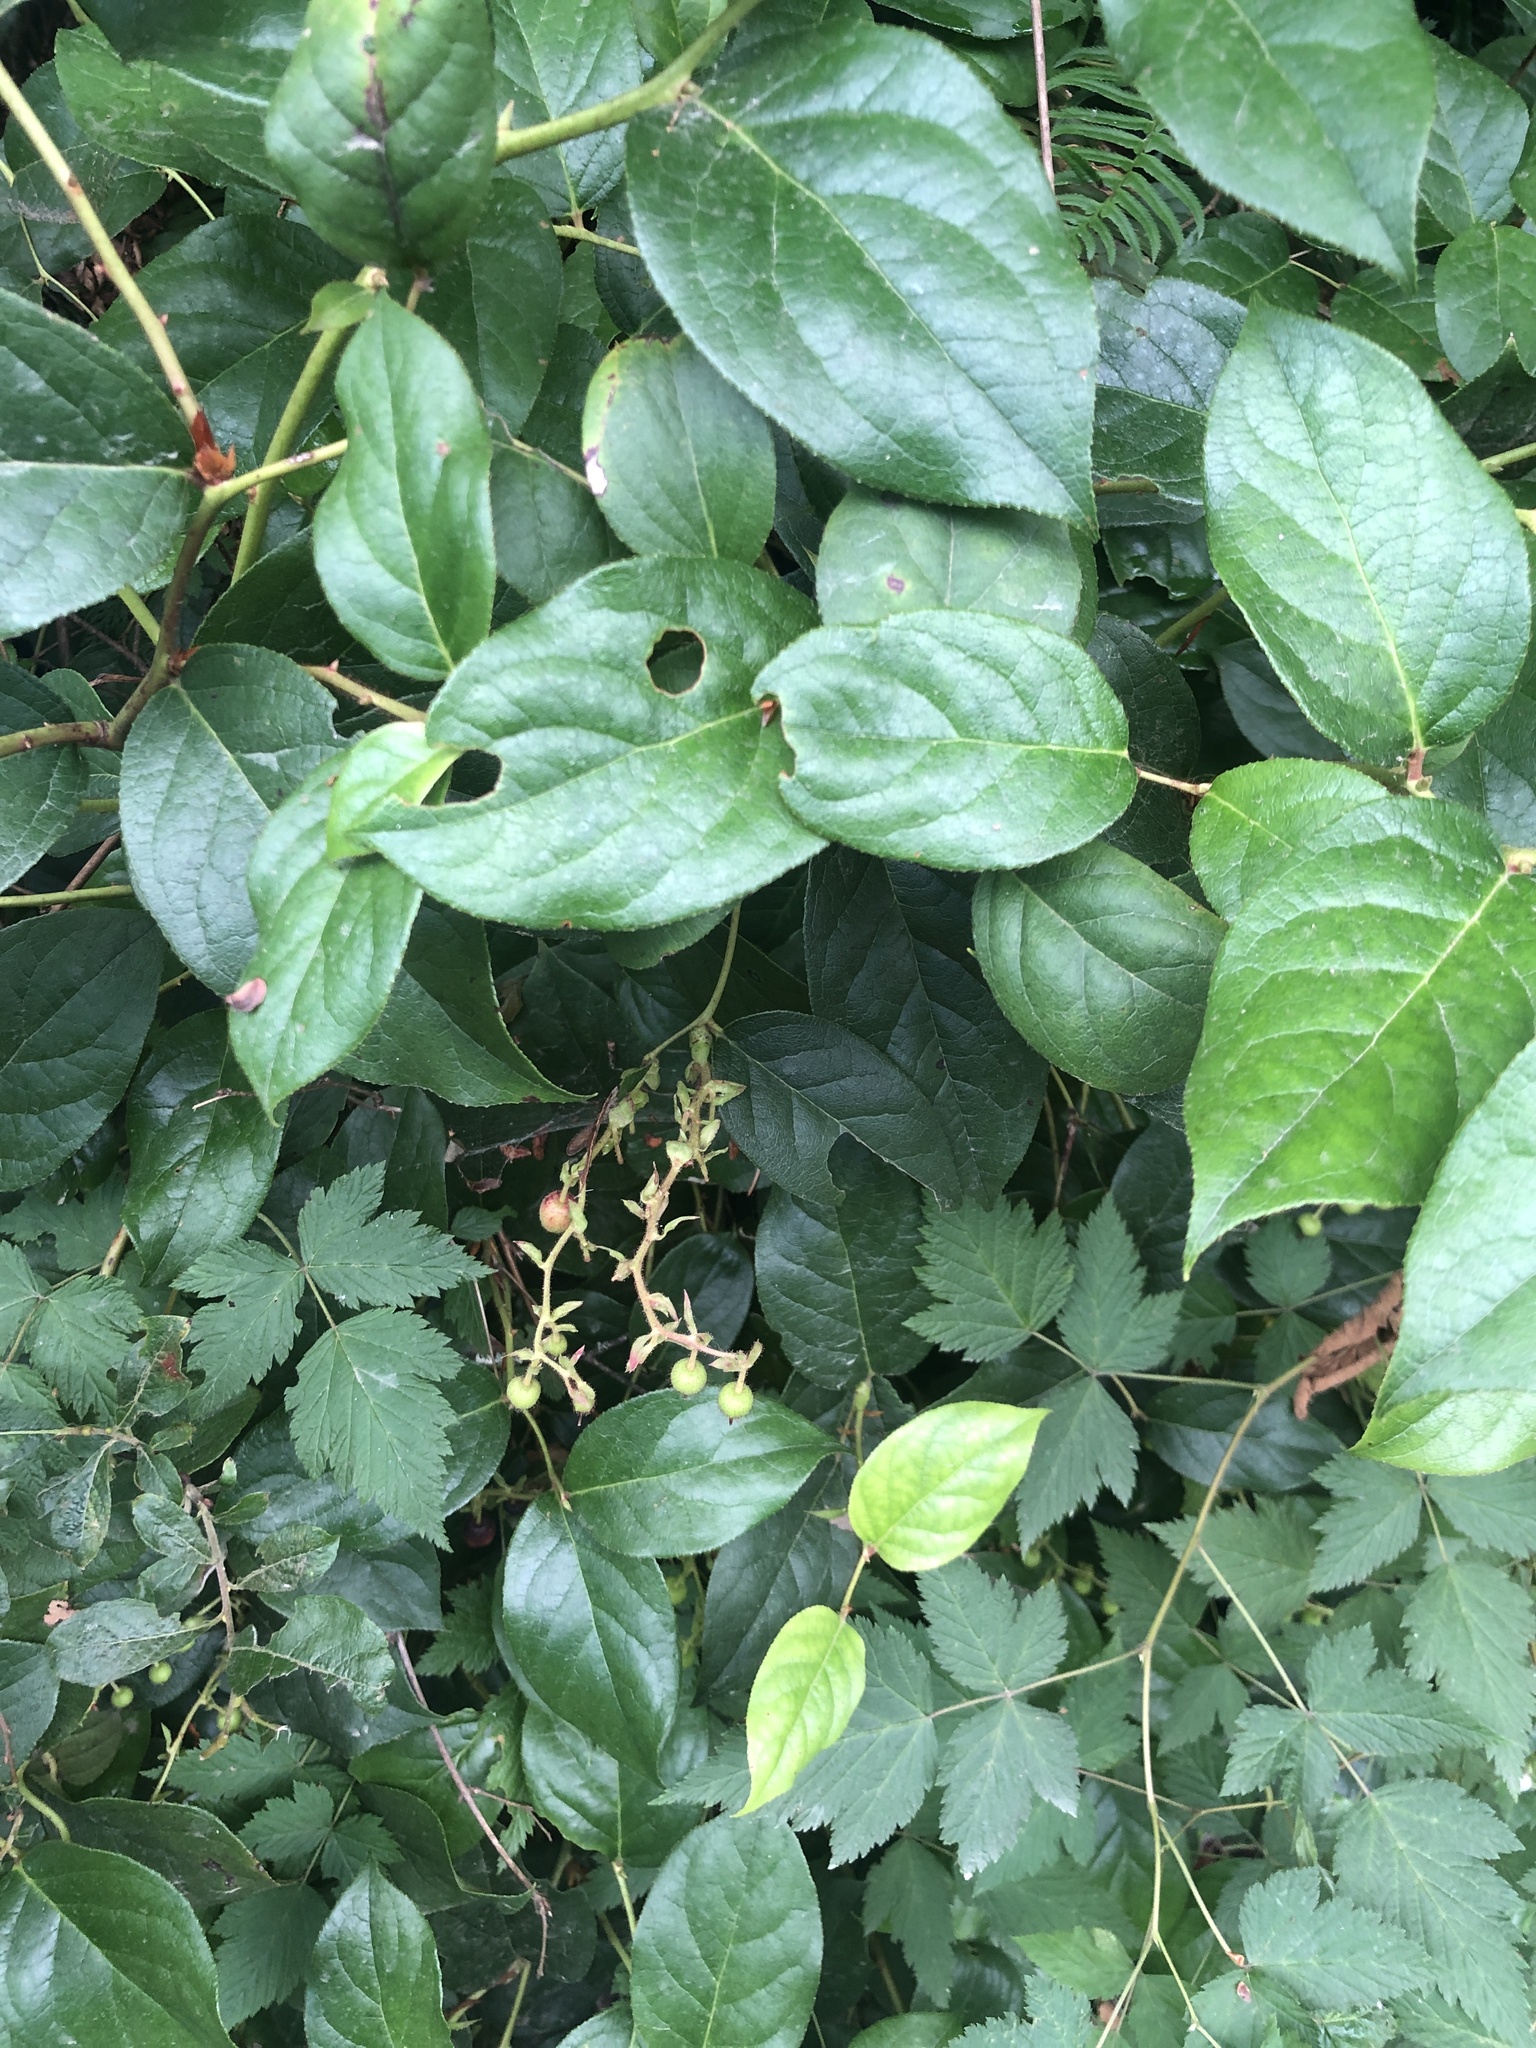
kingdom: Plantae
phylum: Tracheophyta
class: Magnoliopsida
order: Ericales
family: Ericaceae
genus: Gaultheria
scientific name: Gaultheria shallon
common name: Shallon
